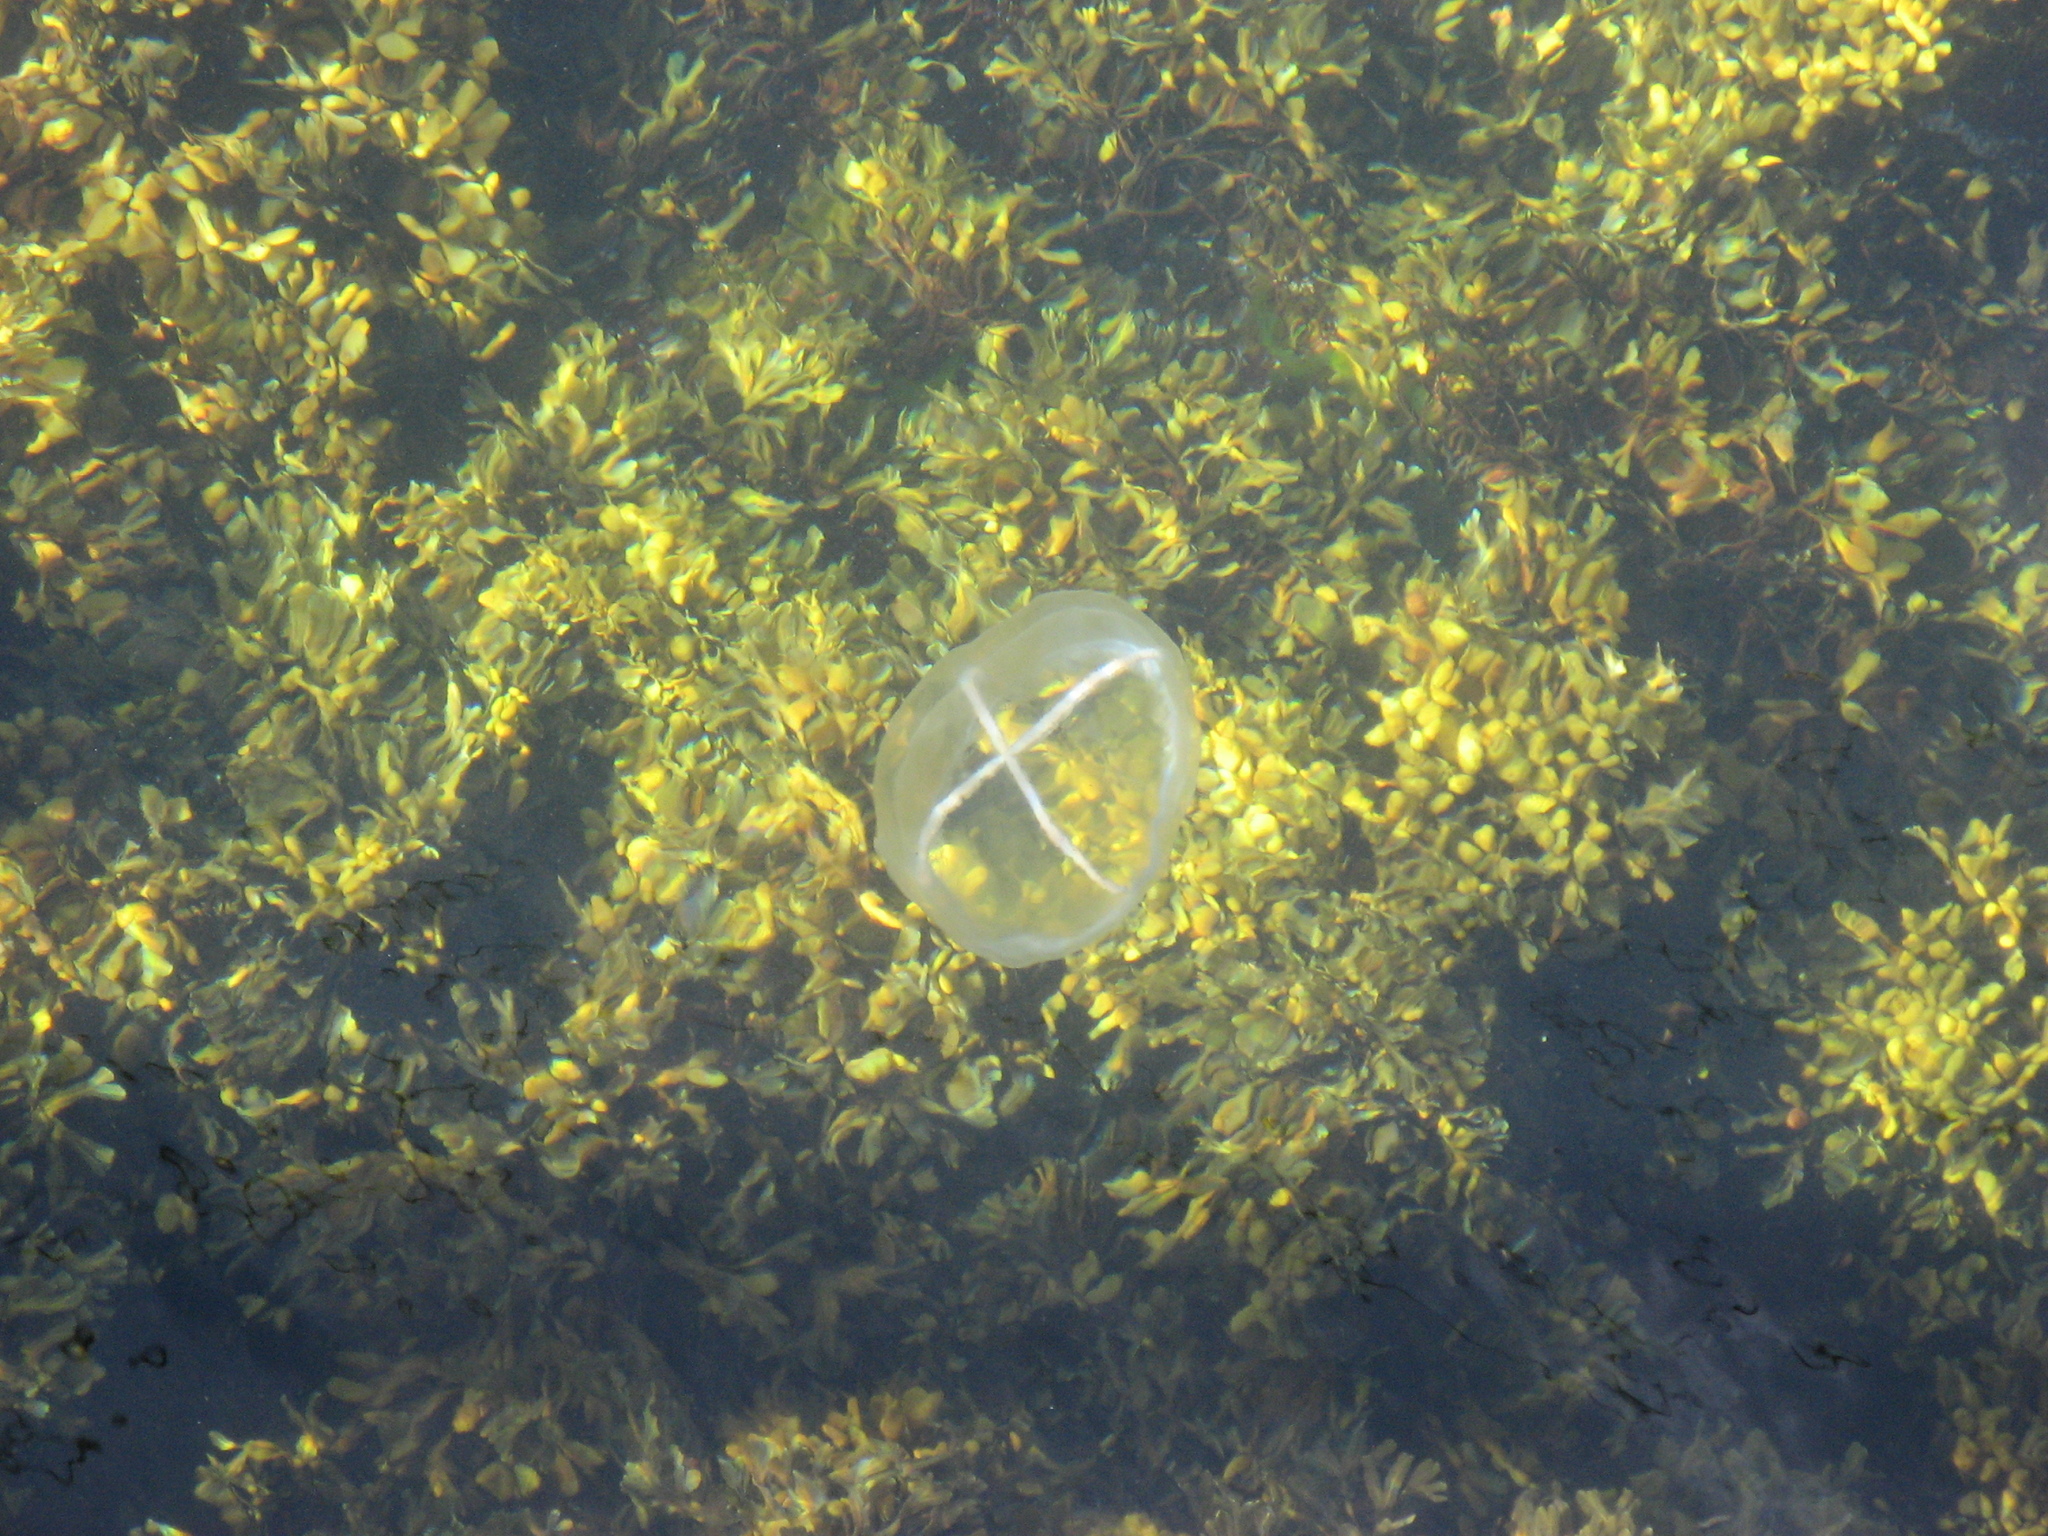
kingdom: Animalia
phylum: Cnidaria
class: Hydrozoa
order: Leptothecata
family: Laodiceidae
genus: Staurostoma
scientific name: Staurostoma mertensii
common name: Whitecross jellyfish
